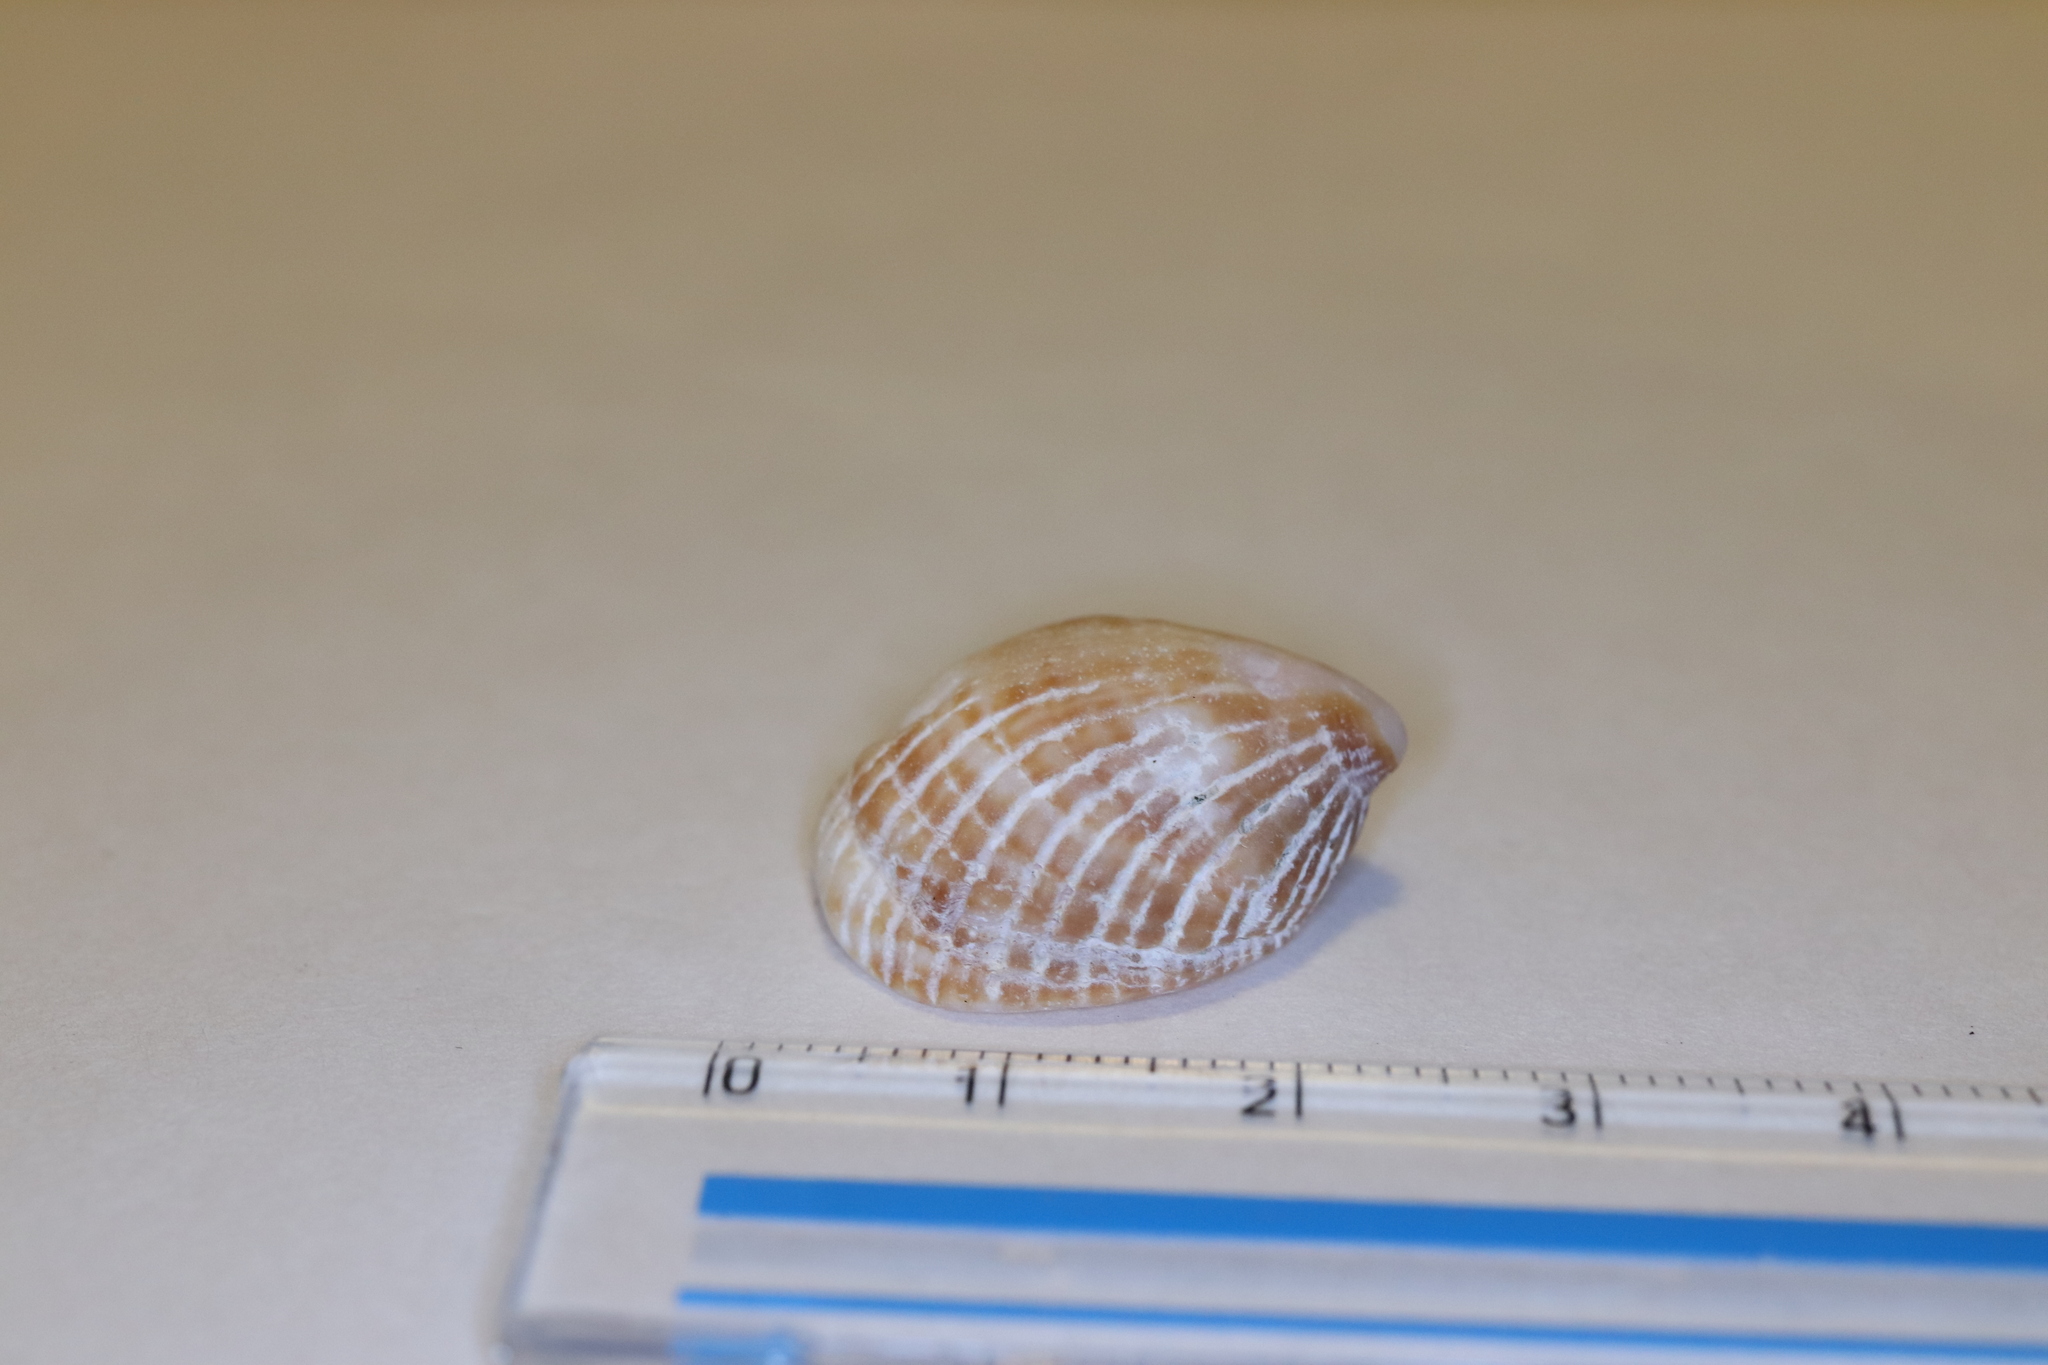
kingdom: Animalia
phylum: Mollusca
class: Gastropoda
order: Littorinimorpha
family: Hipponicidae
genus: Pilosabia
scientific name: Pilosabia trigona
